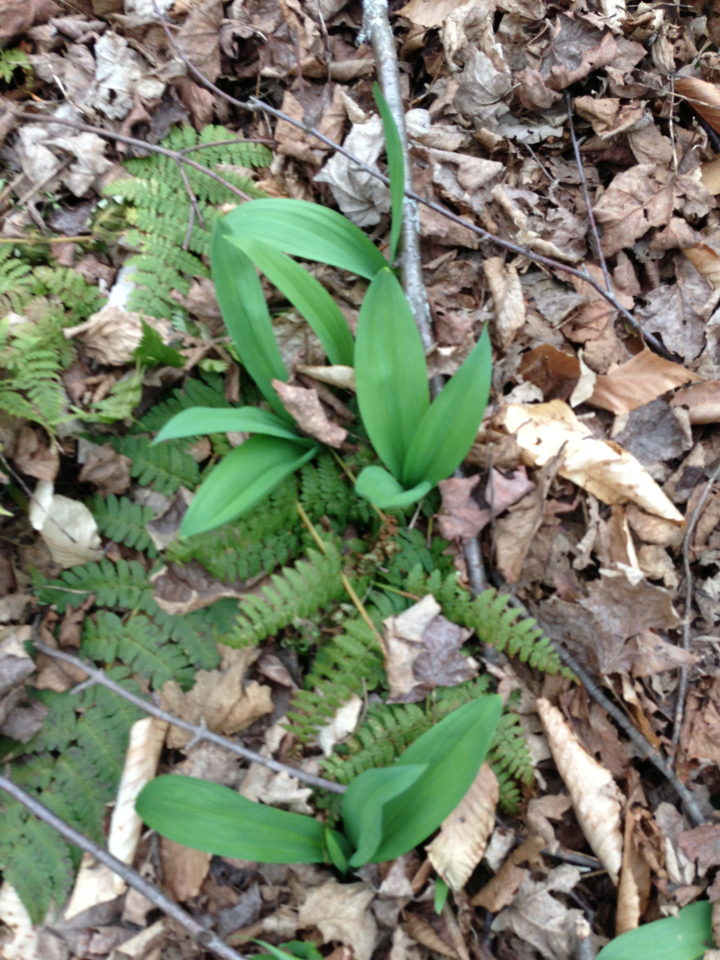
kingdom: Plantae
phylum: Tracheophyta
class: Liliopsida
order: Asparagales
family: Amaryllidaceae
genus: Allium
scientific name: Allium tricoccum
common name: Ramp
